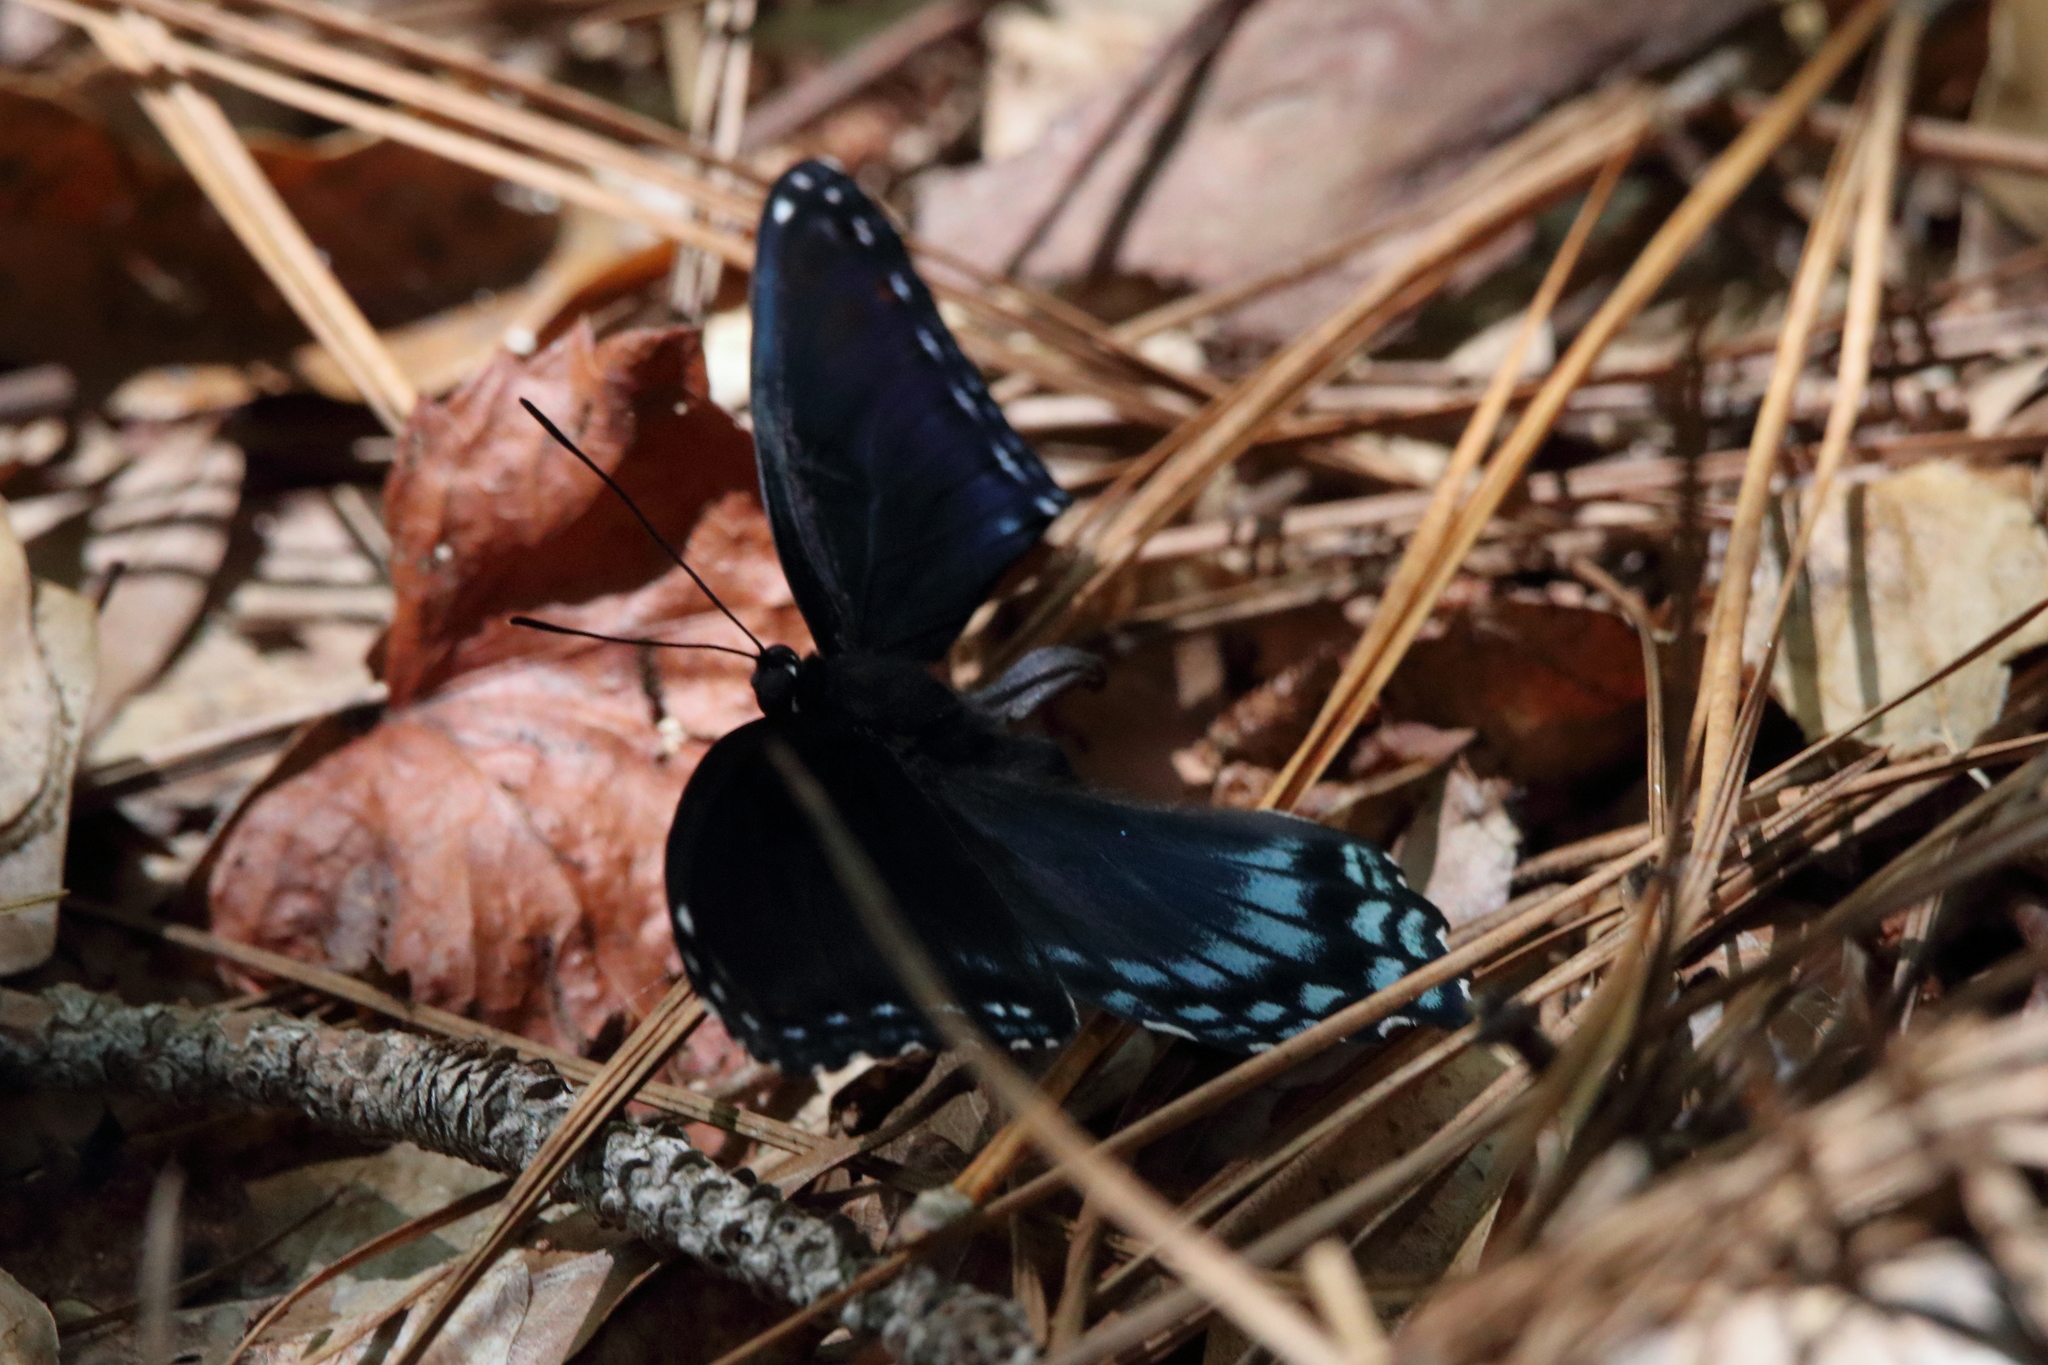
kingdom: Animalia
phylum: Arthropoda
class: Insecta
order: Lepidoptera
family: Nymphalidae
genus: Limenitis
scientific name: Limenitis astyanax
